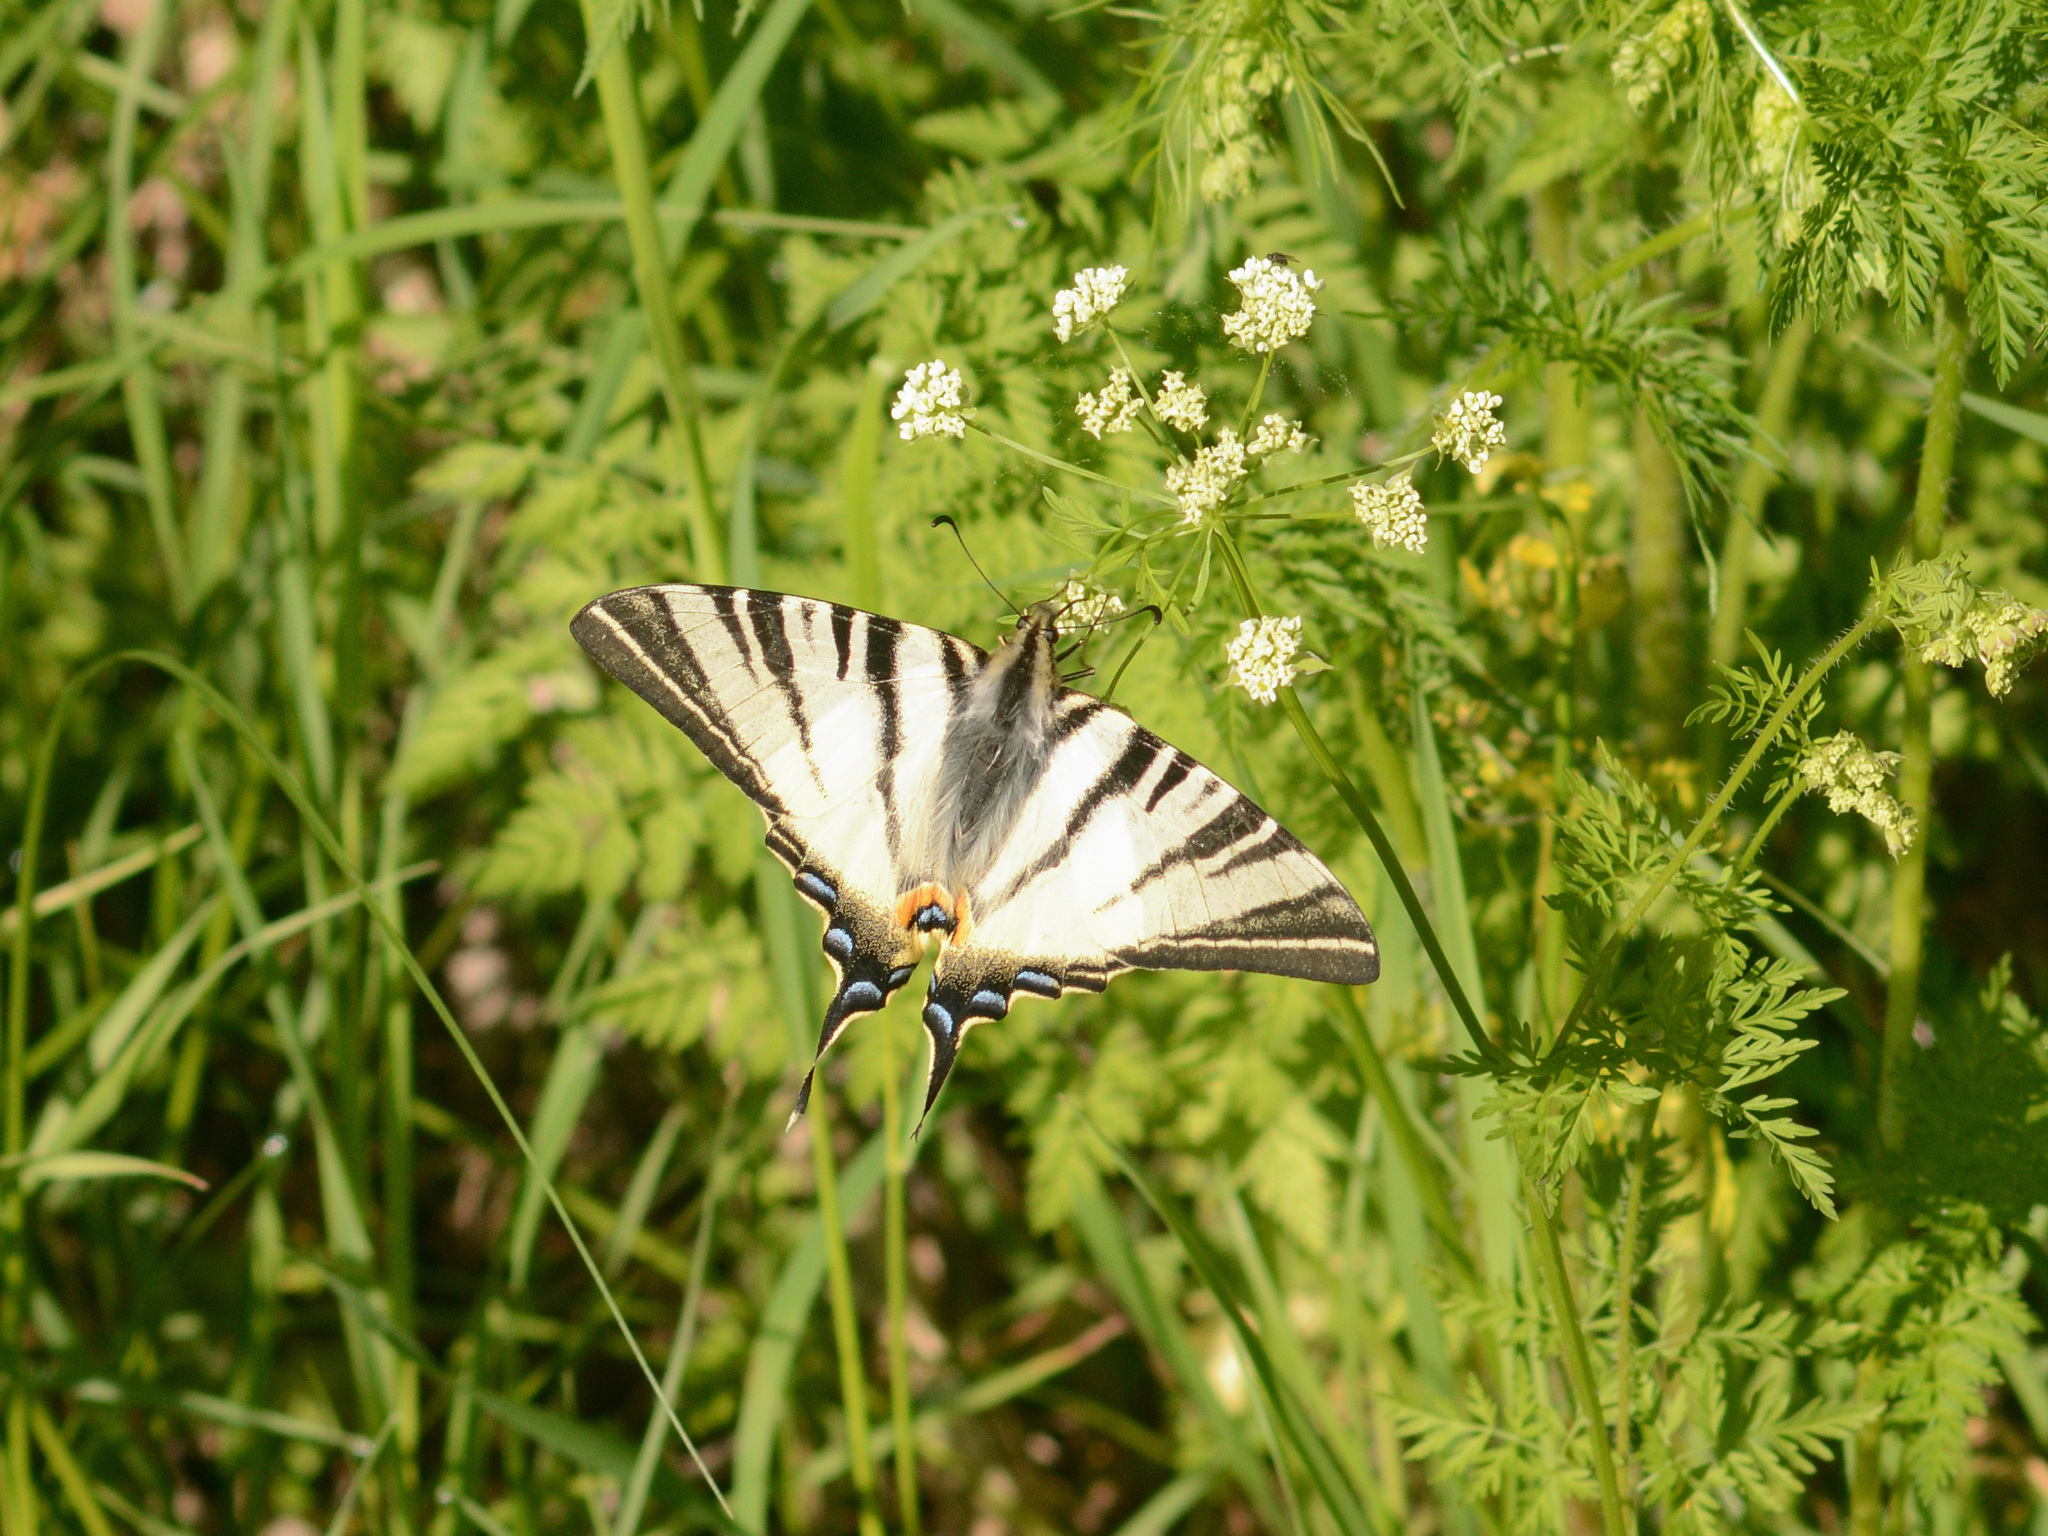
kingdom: Animalia
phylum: Arthropoda
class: Insecta
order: Lepidoptera
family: Papilionidae
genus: Iphiclides
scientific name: Iphiclides podalirius
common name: Scarce swallowtail
